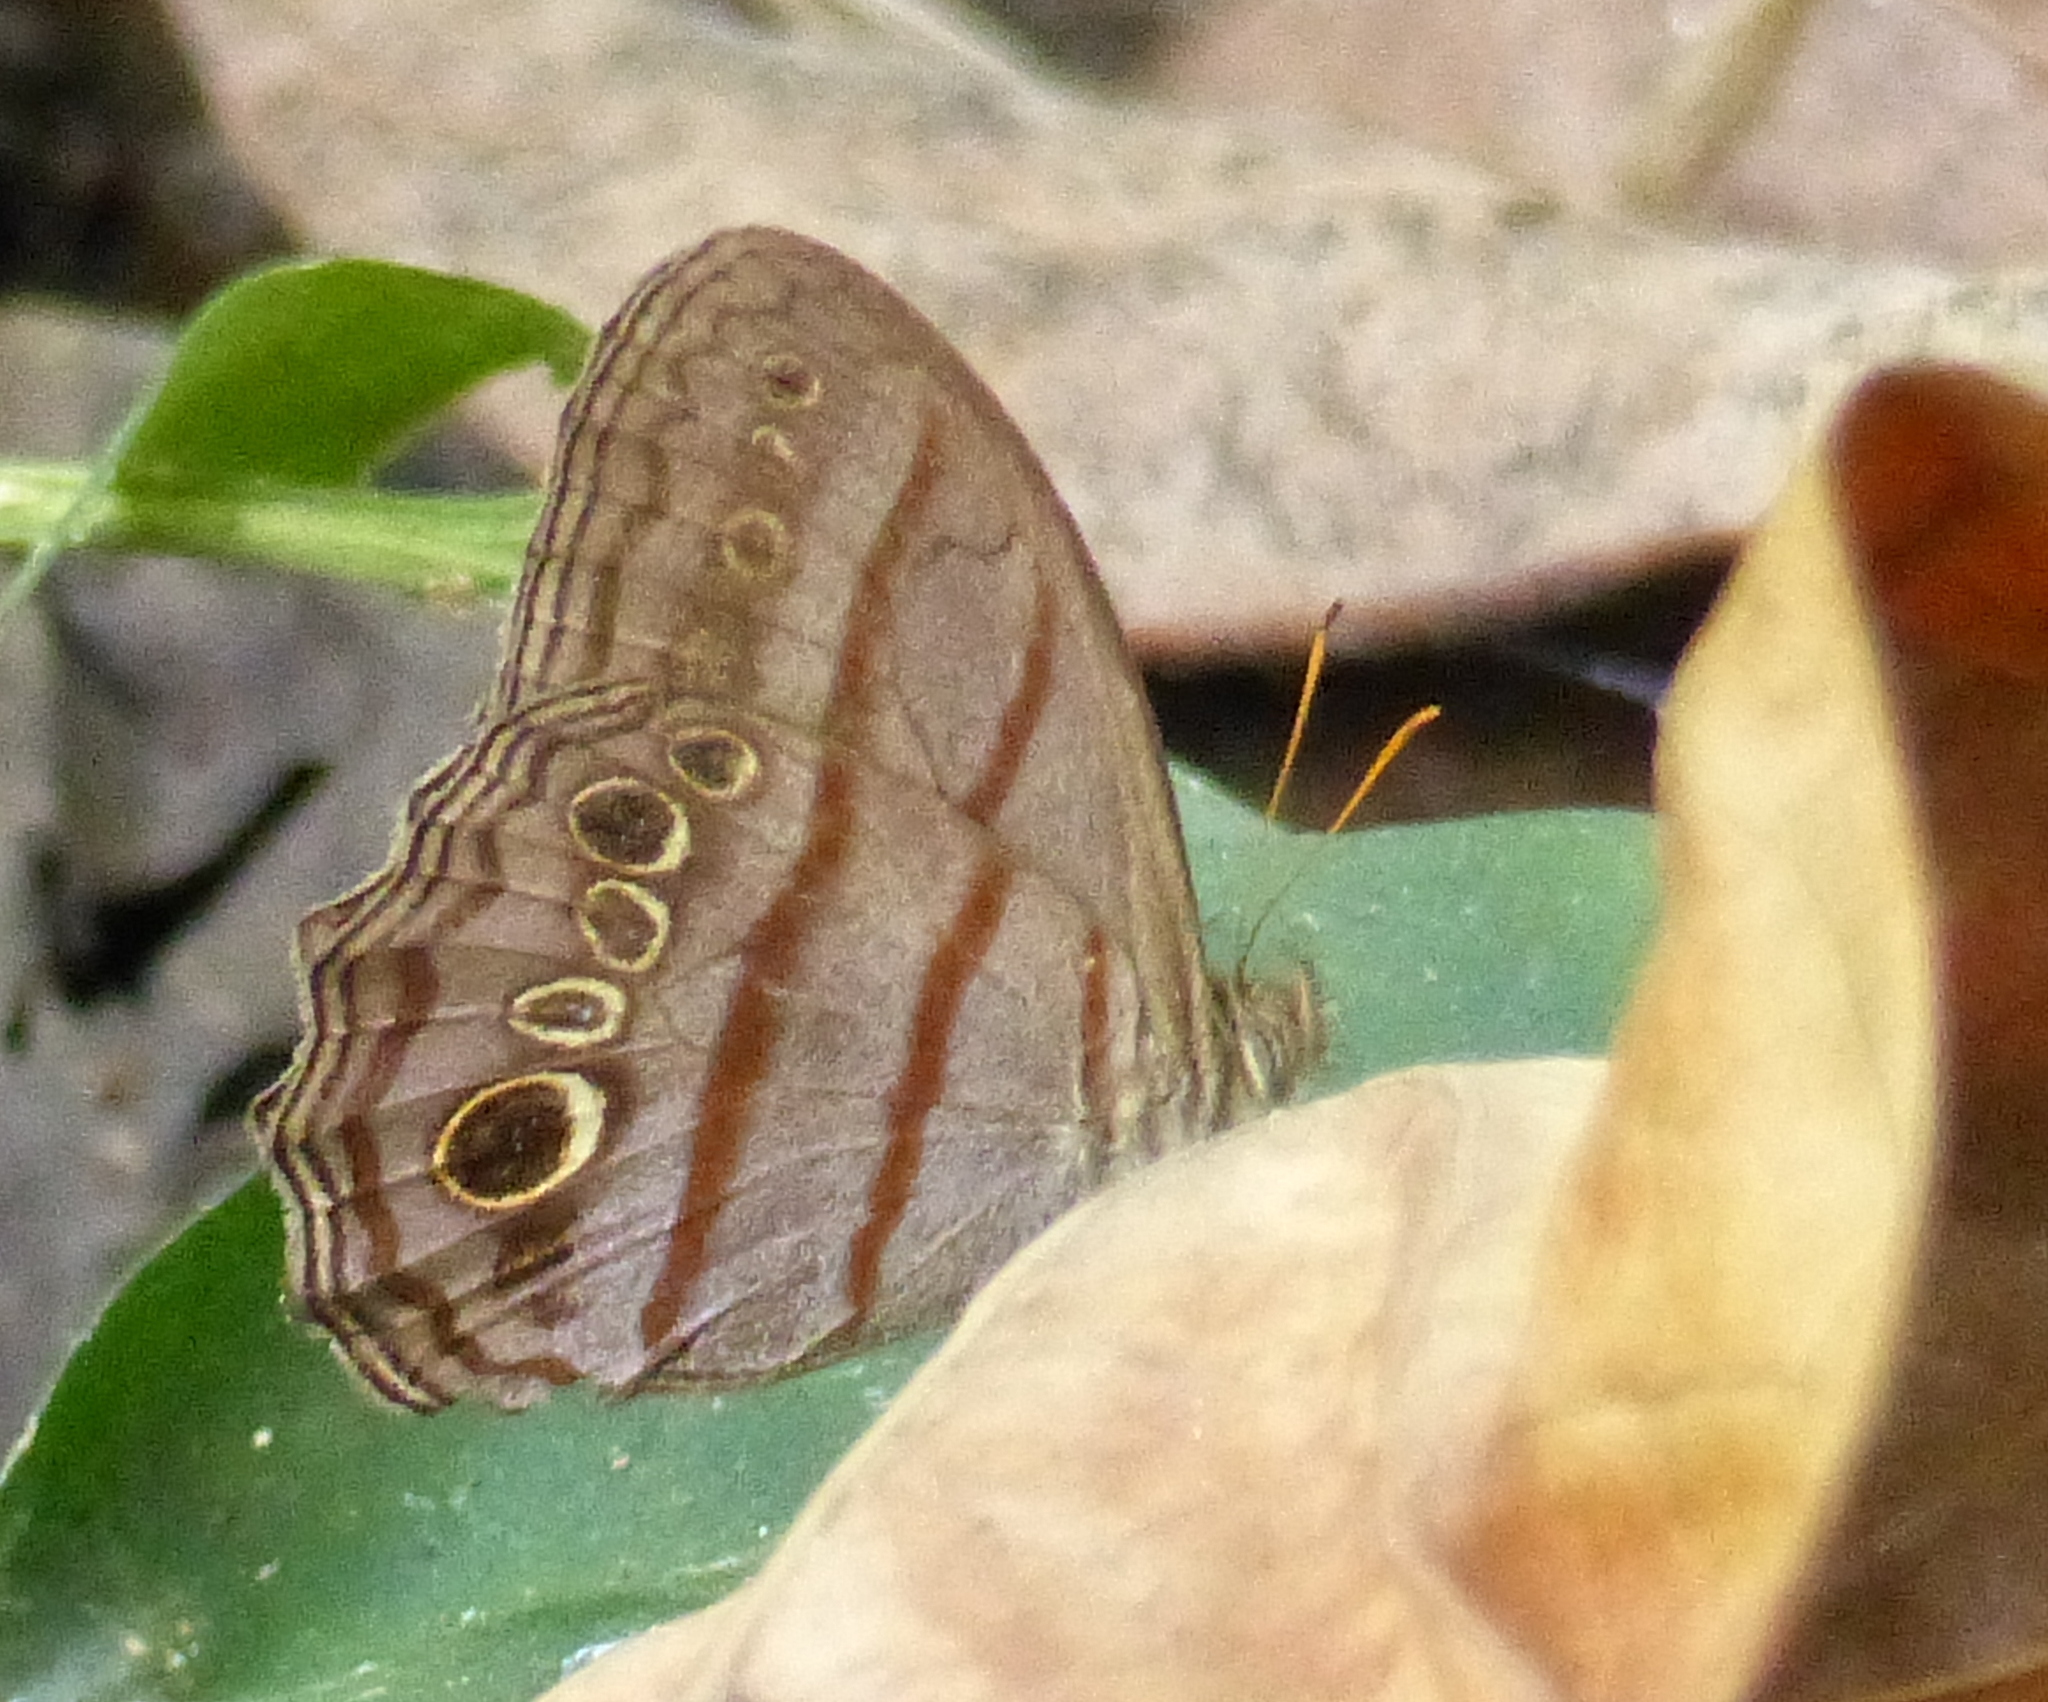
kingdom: Animalia
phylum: Arthropoda
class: Insecta
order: Lepidoptera
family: Nymphalidae
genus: Magneuptychia
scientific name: Magneuptychia libye
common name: Blue-gray satyr
